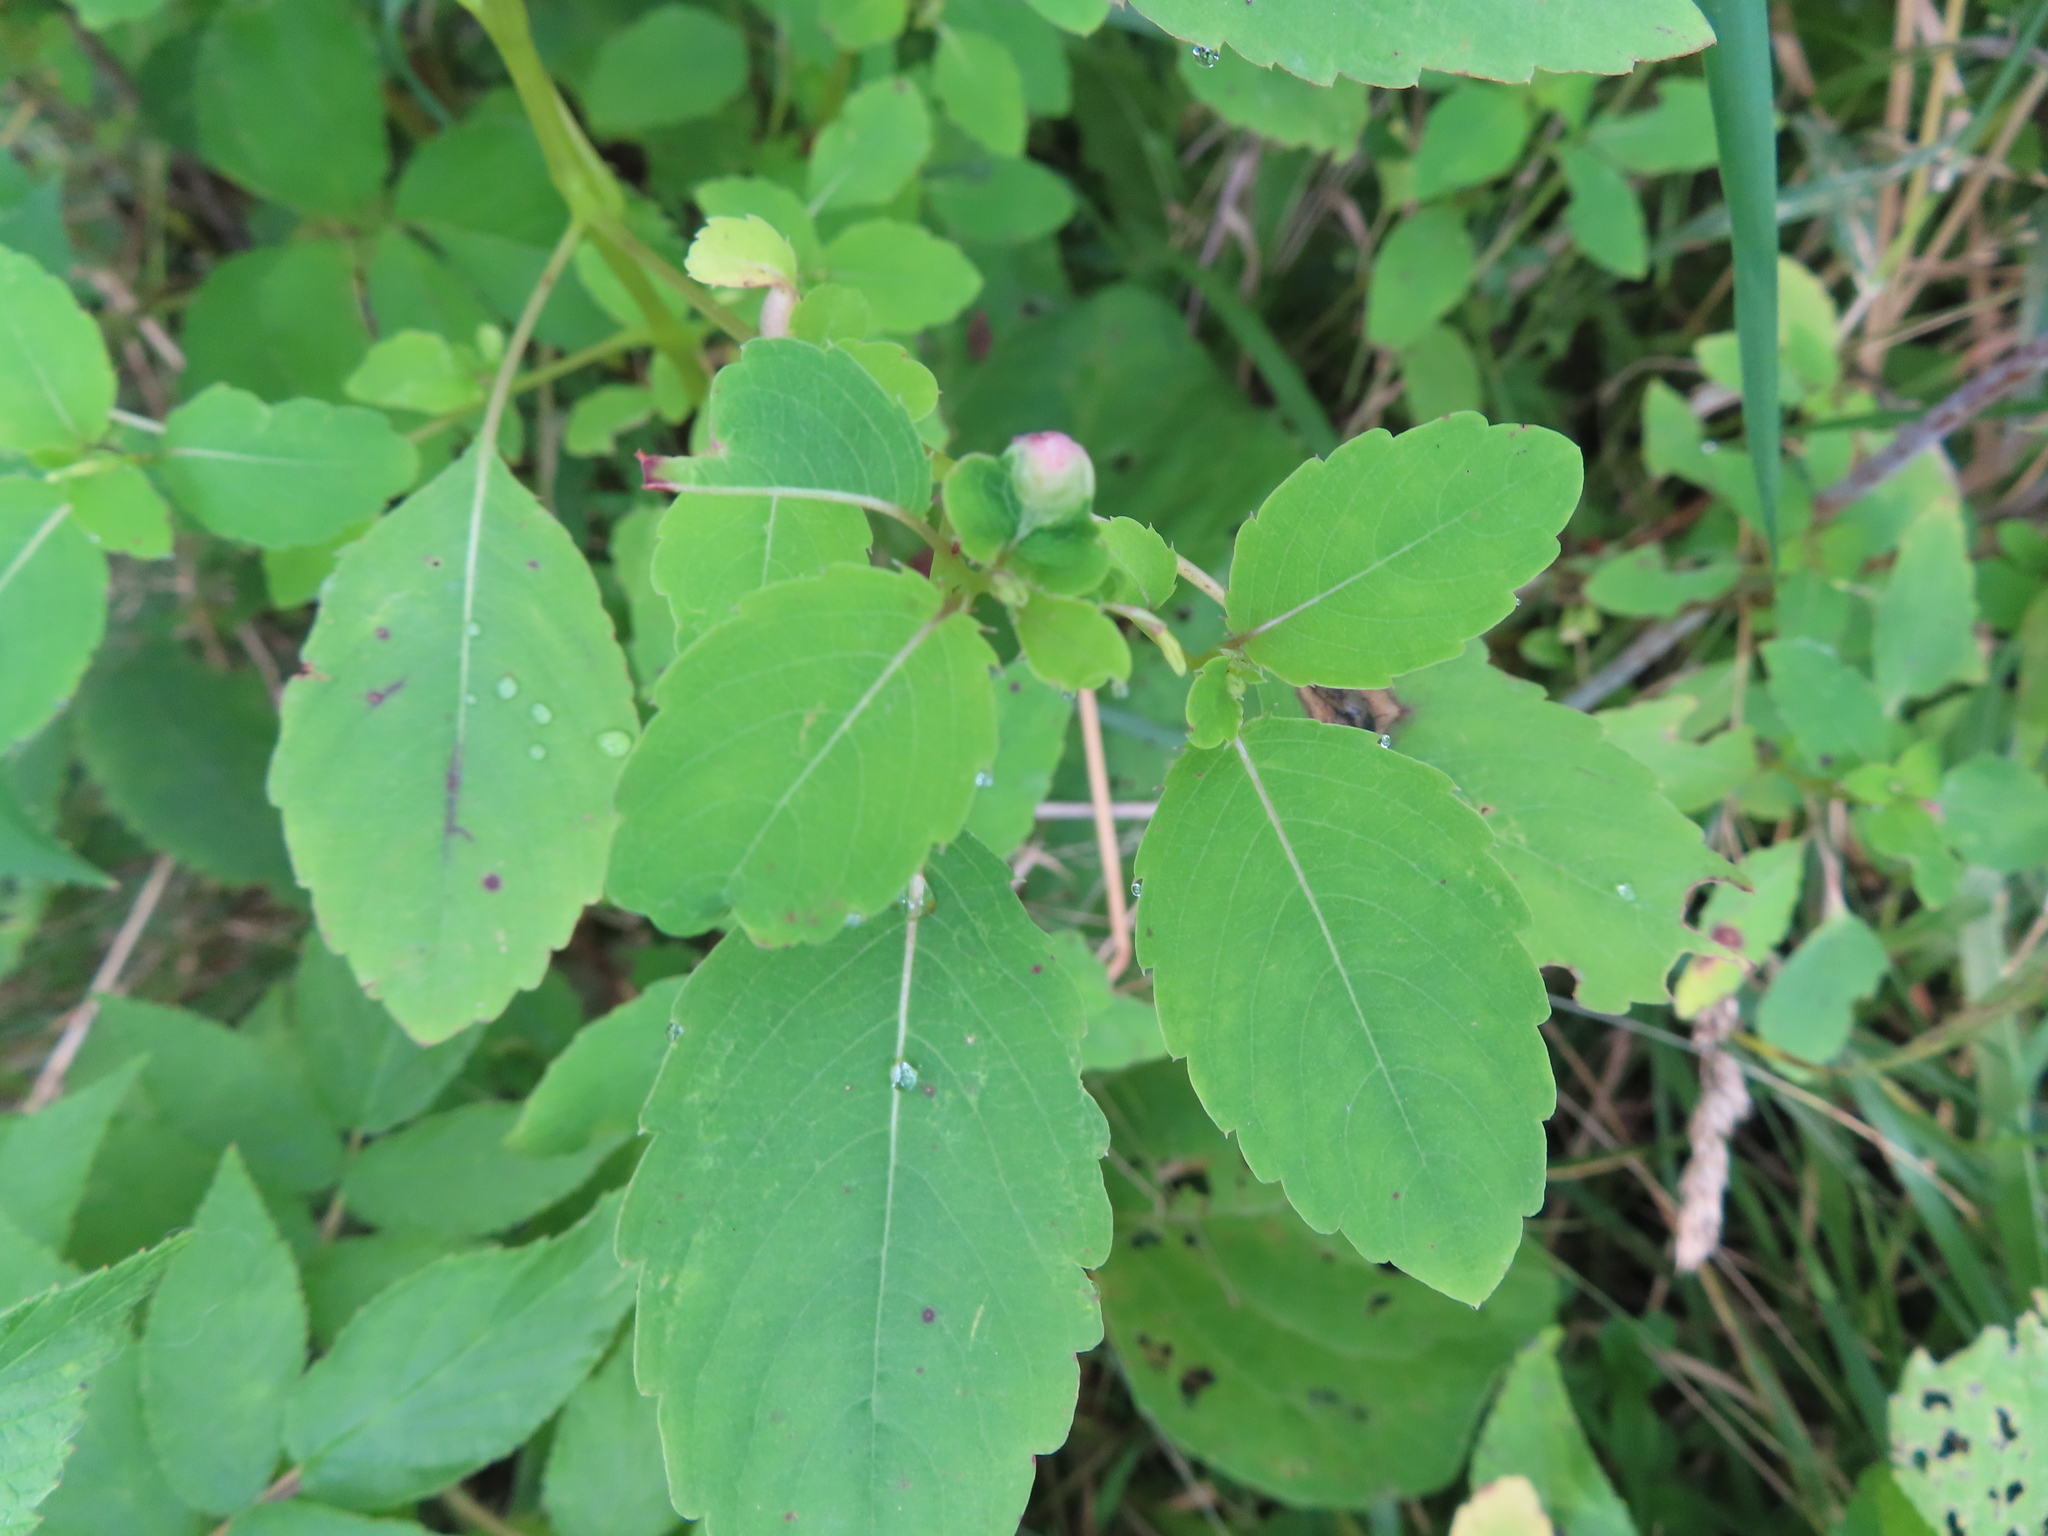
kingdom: Animalia
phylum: Arthropoda
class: Insecta
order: Diptera
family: Cecidomyiidae
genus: Schizomyia
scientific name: Schizomyia impatientis
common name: Jewelweed gall midge
